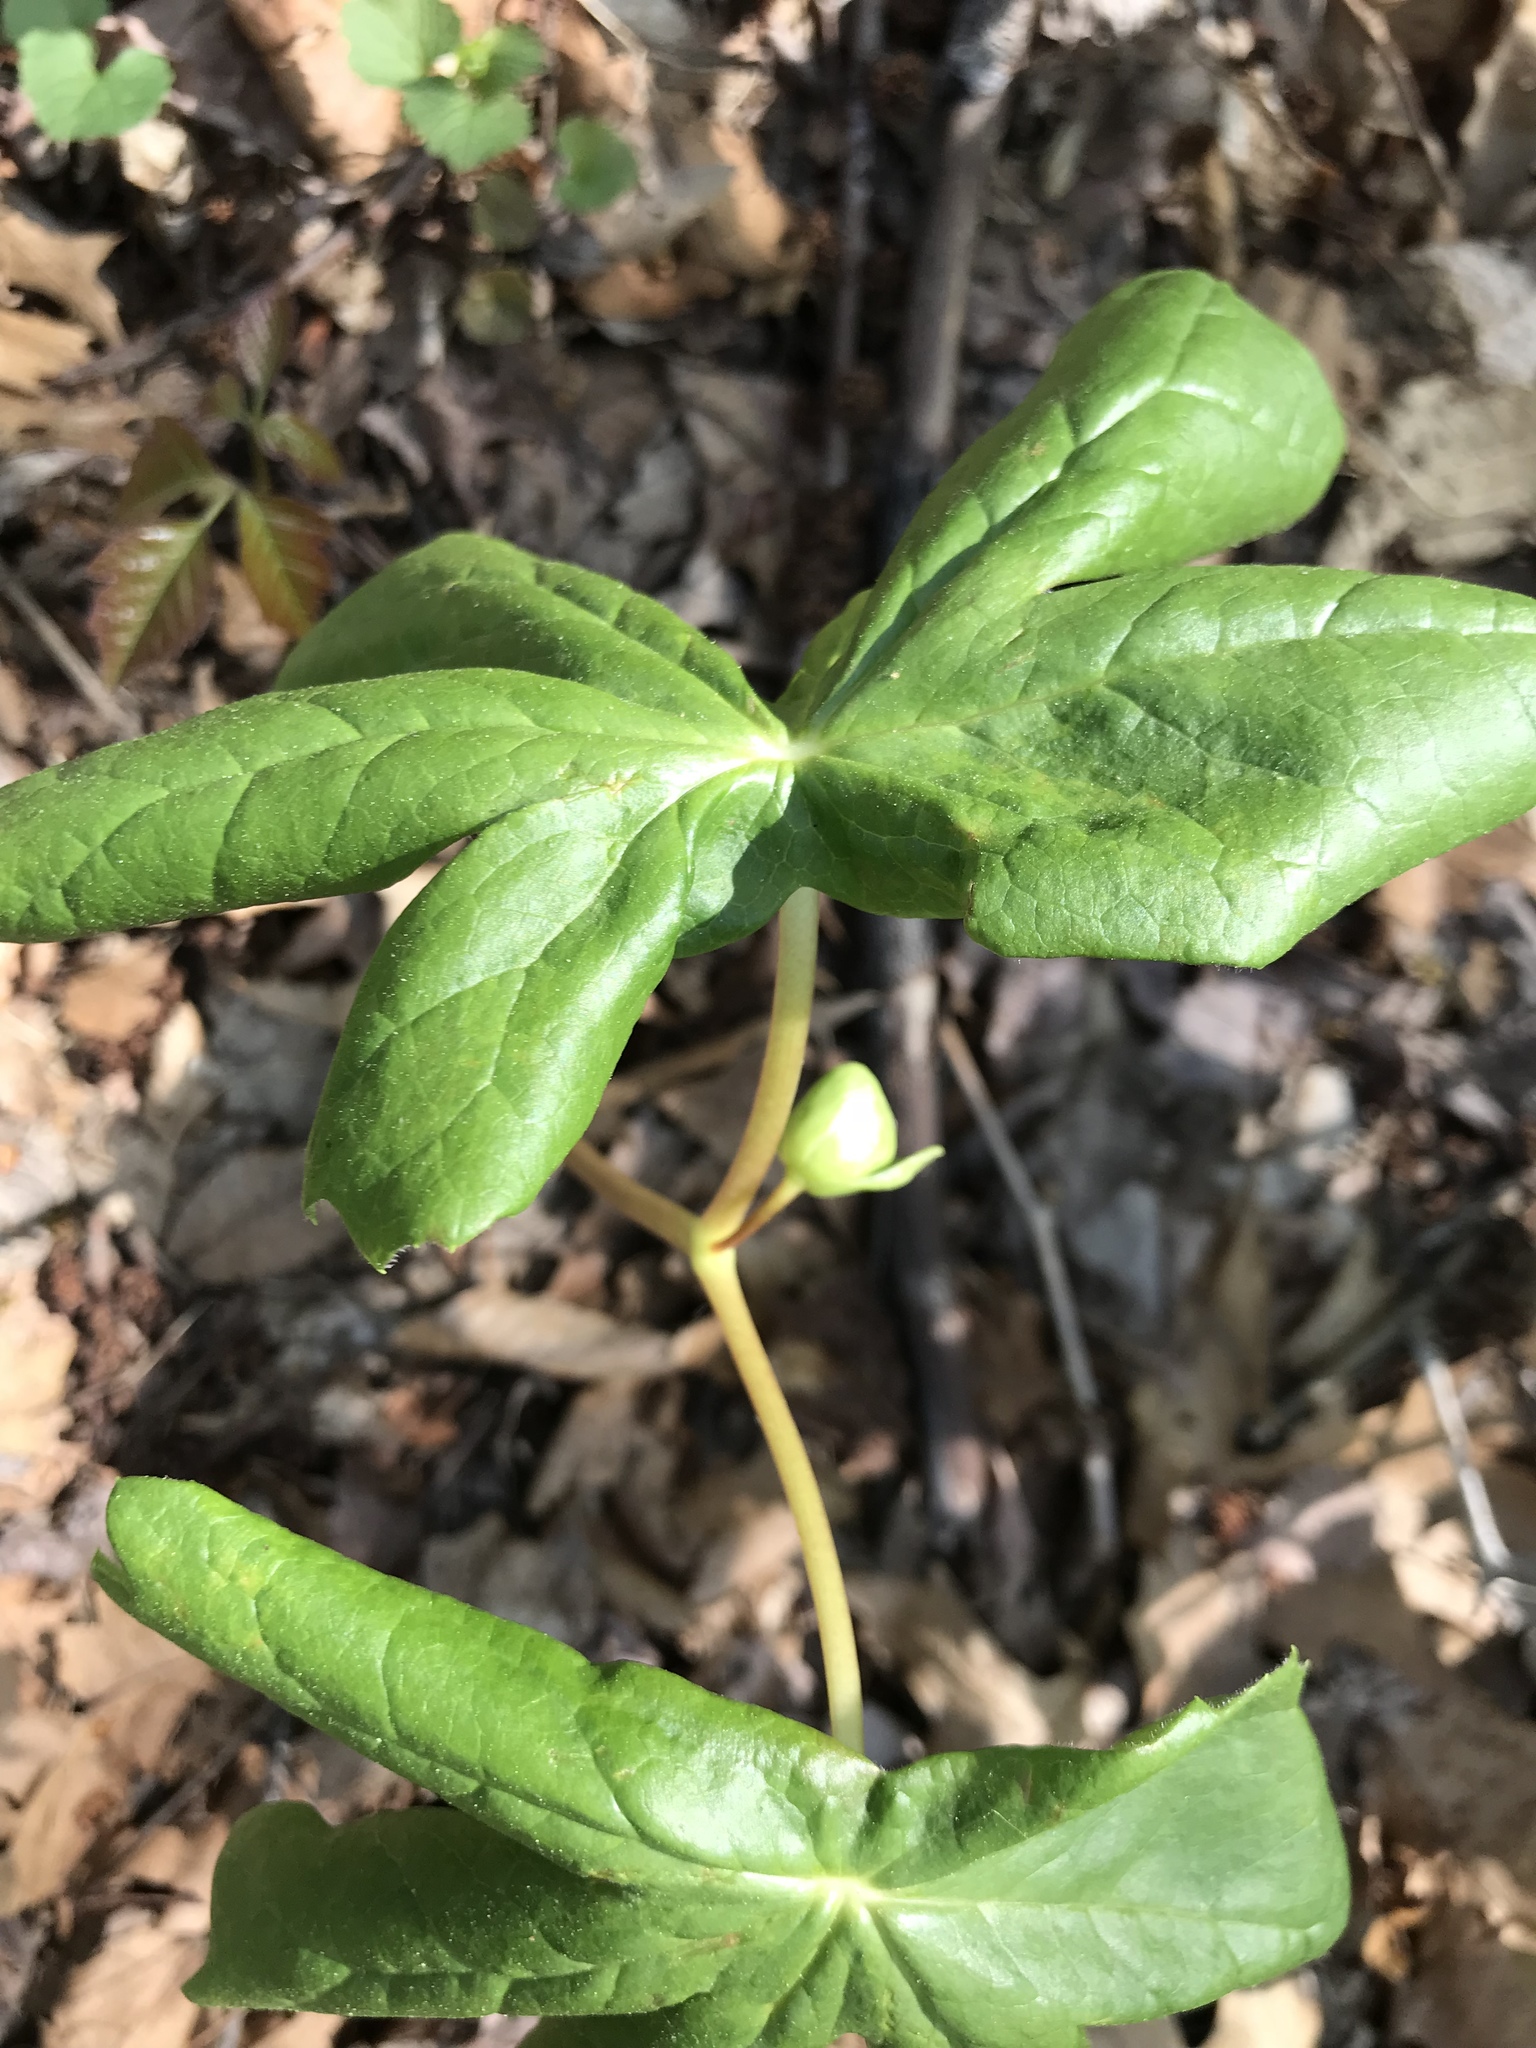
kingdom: Plantae
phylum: Tracheophyta
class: Magnoliopsida
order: Ranunculales
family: Berberidaceae
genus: Podophyllum
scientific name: Podophyllum peltatum
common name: Wild mandrake
